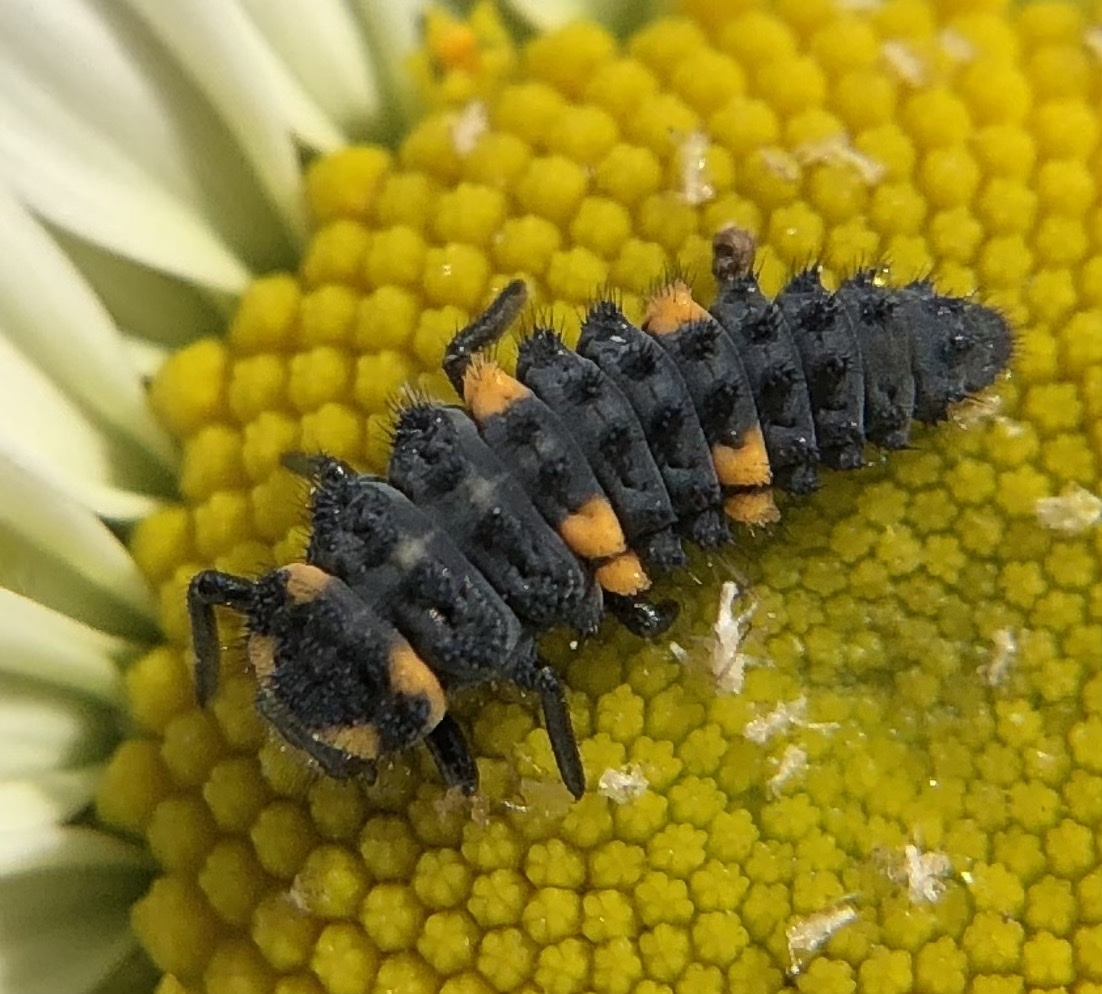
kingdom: Animalia
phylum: Arthropoda
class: Insecta
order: Coleoptera
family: Coccinellidae
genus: Coccinella
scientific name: Coccinella septempunctata
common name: Sevenspotted lady beetle
